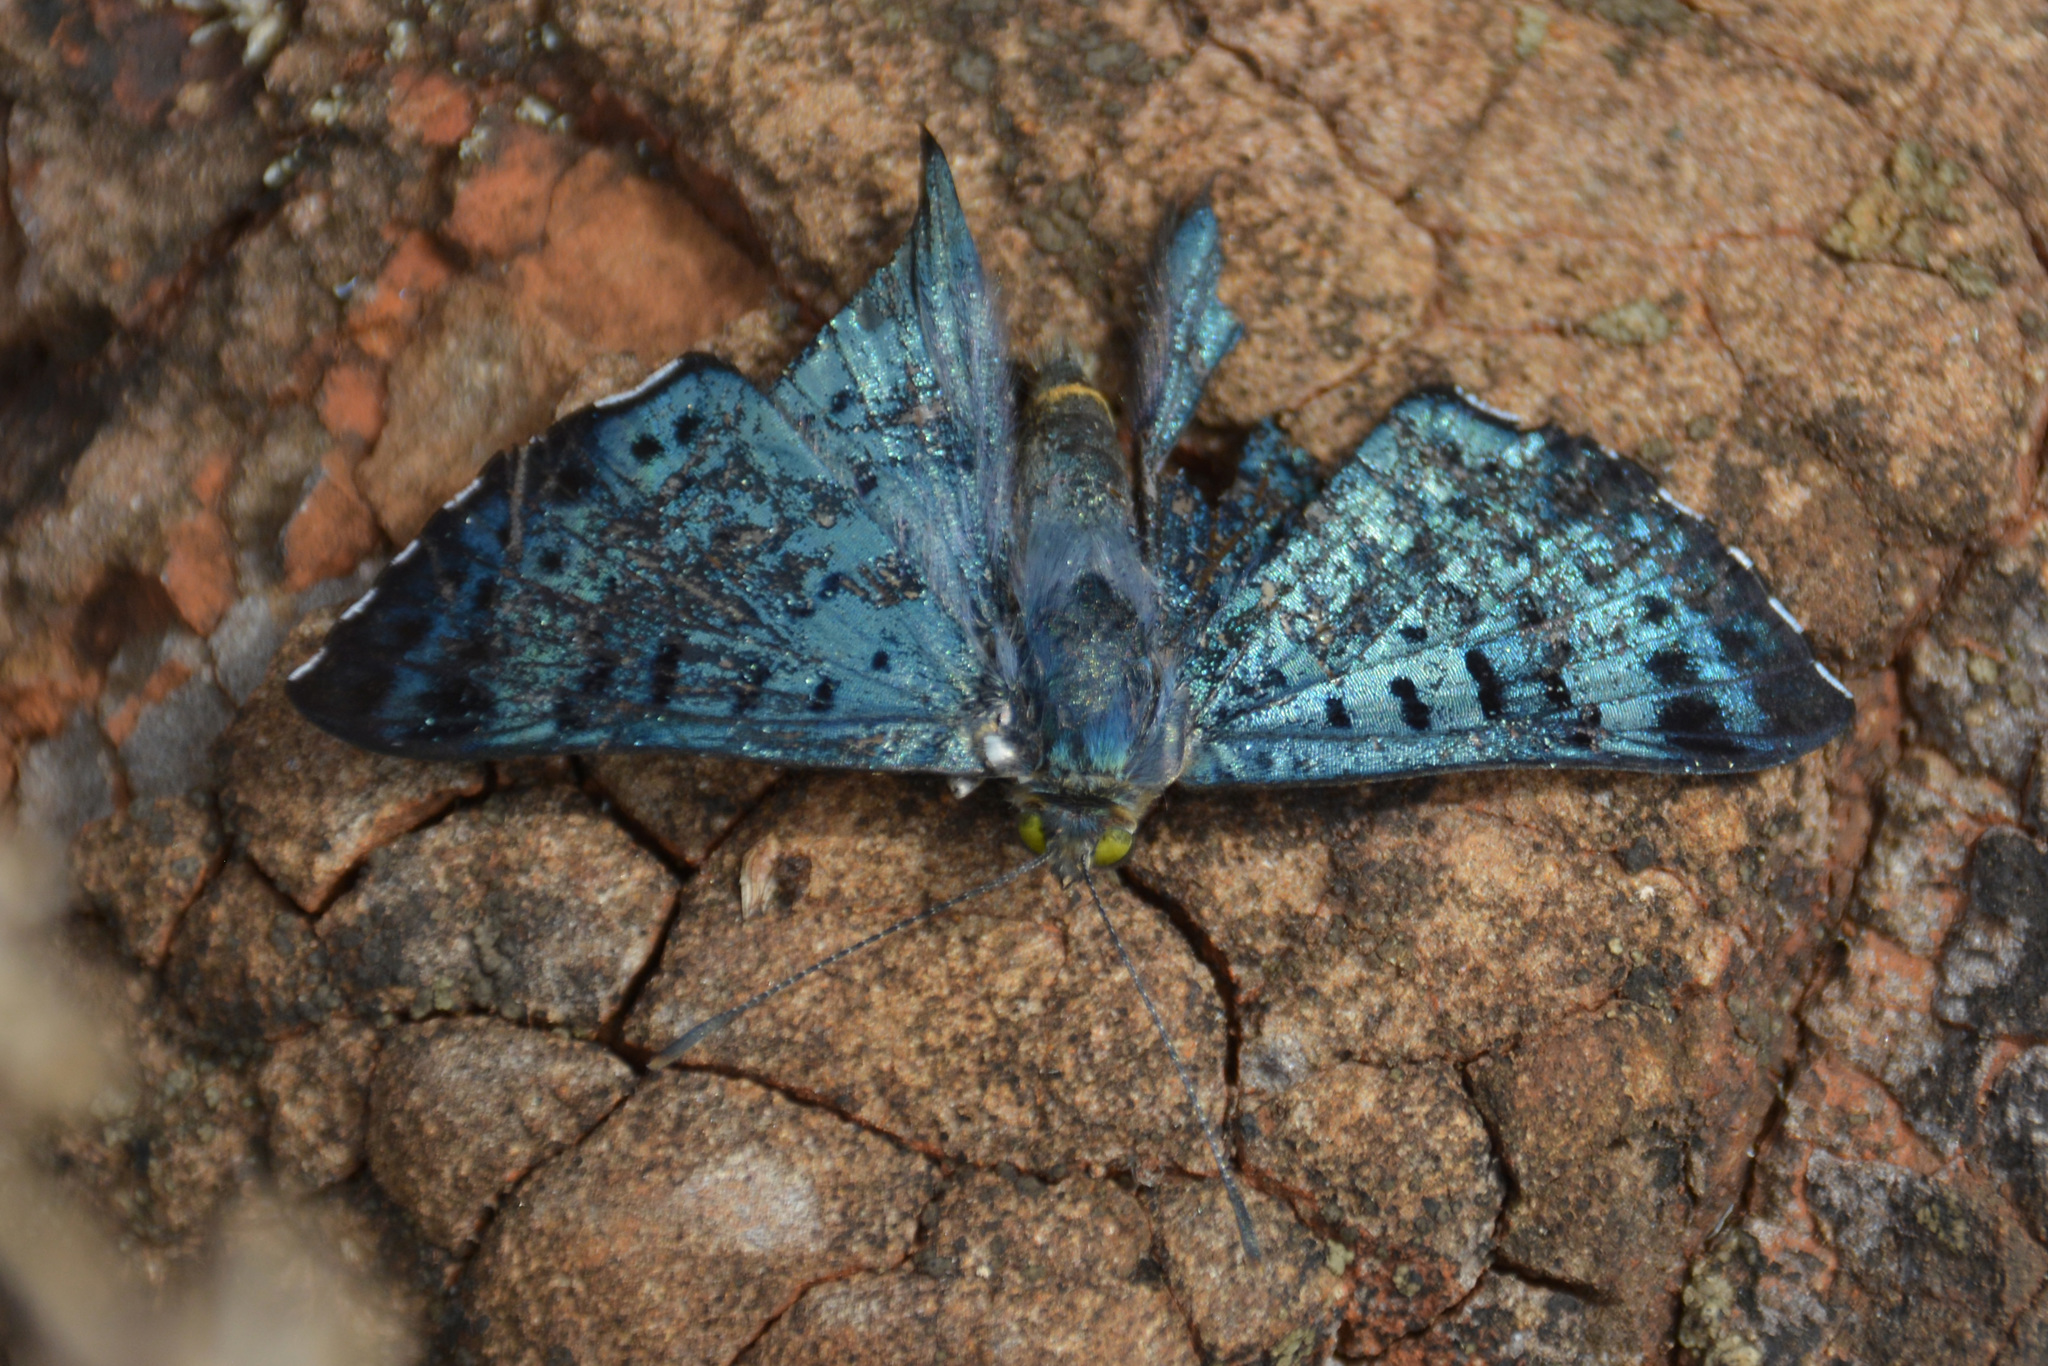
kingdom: Animalia
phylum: Arthropoda
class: Insecta
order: Lepidoptera
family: Riodinidae
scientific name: Riodinidae
